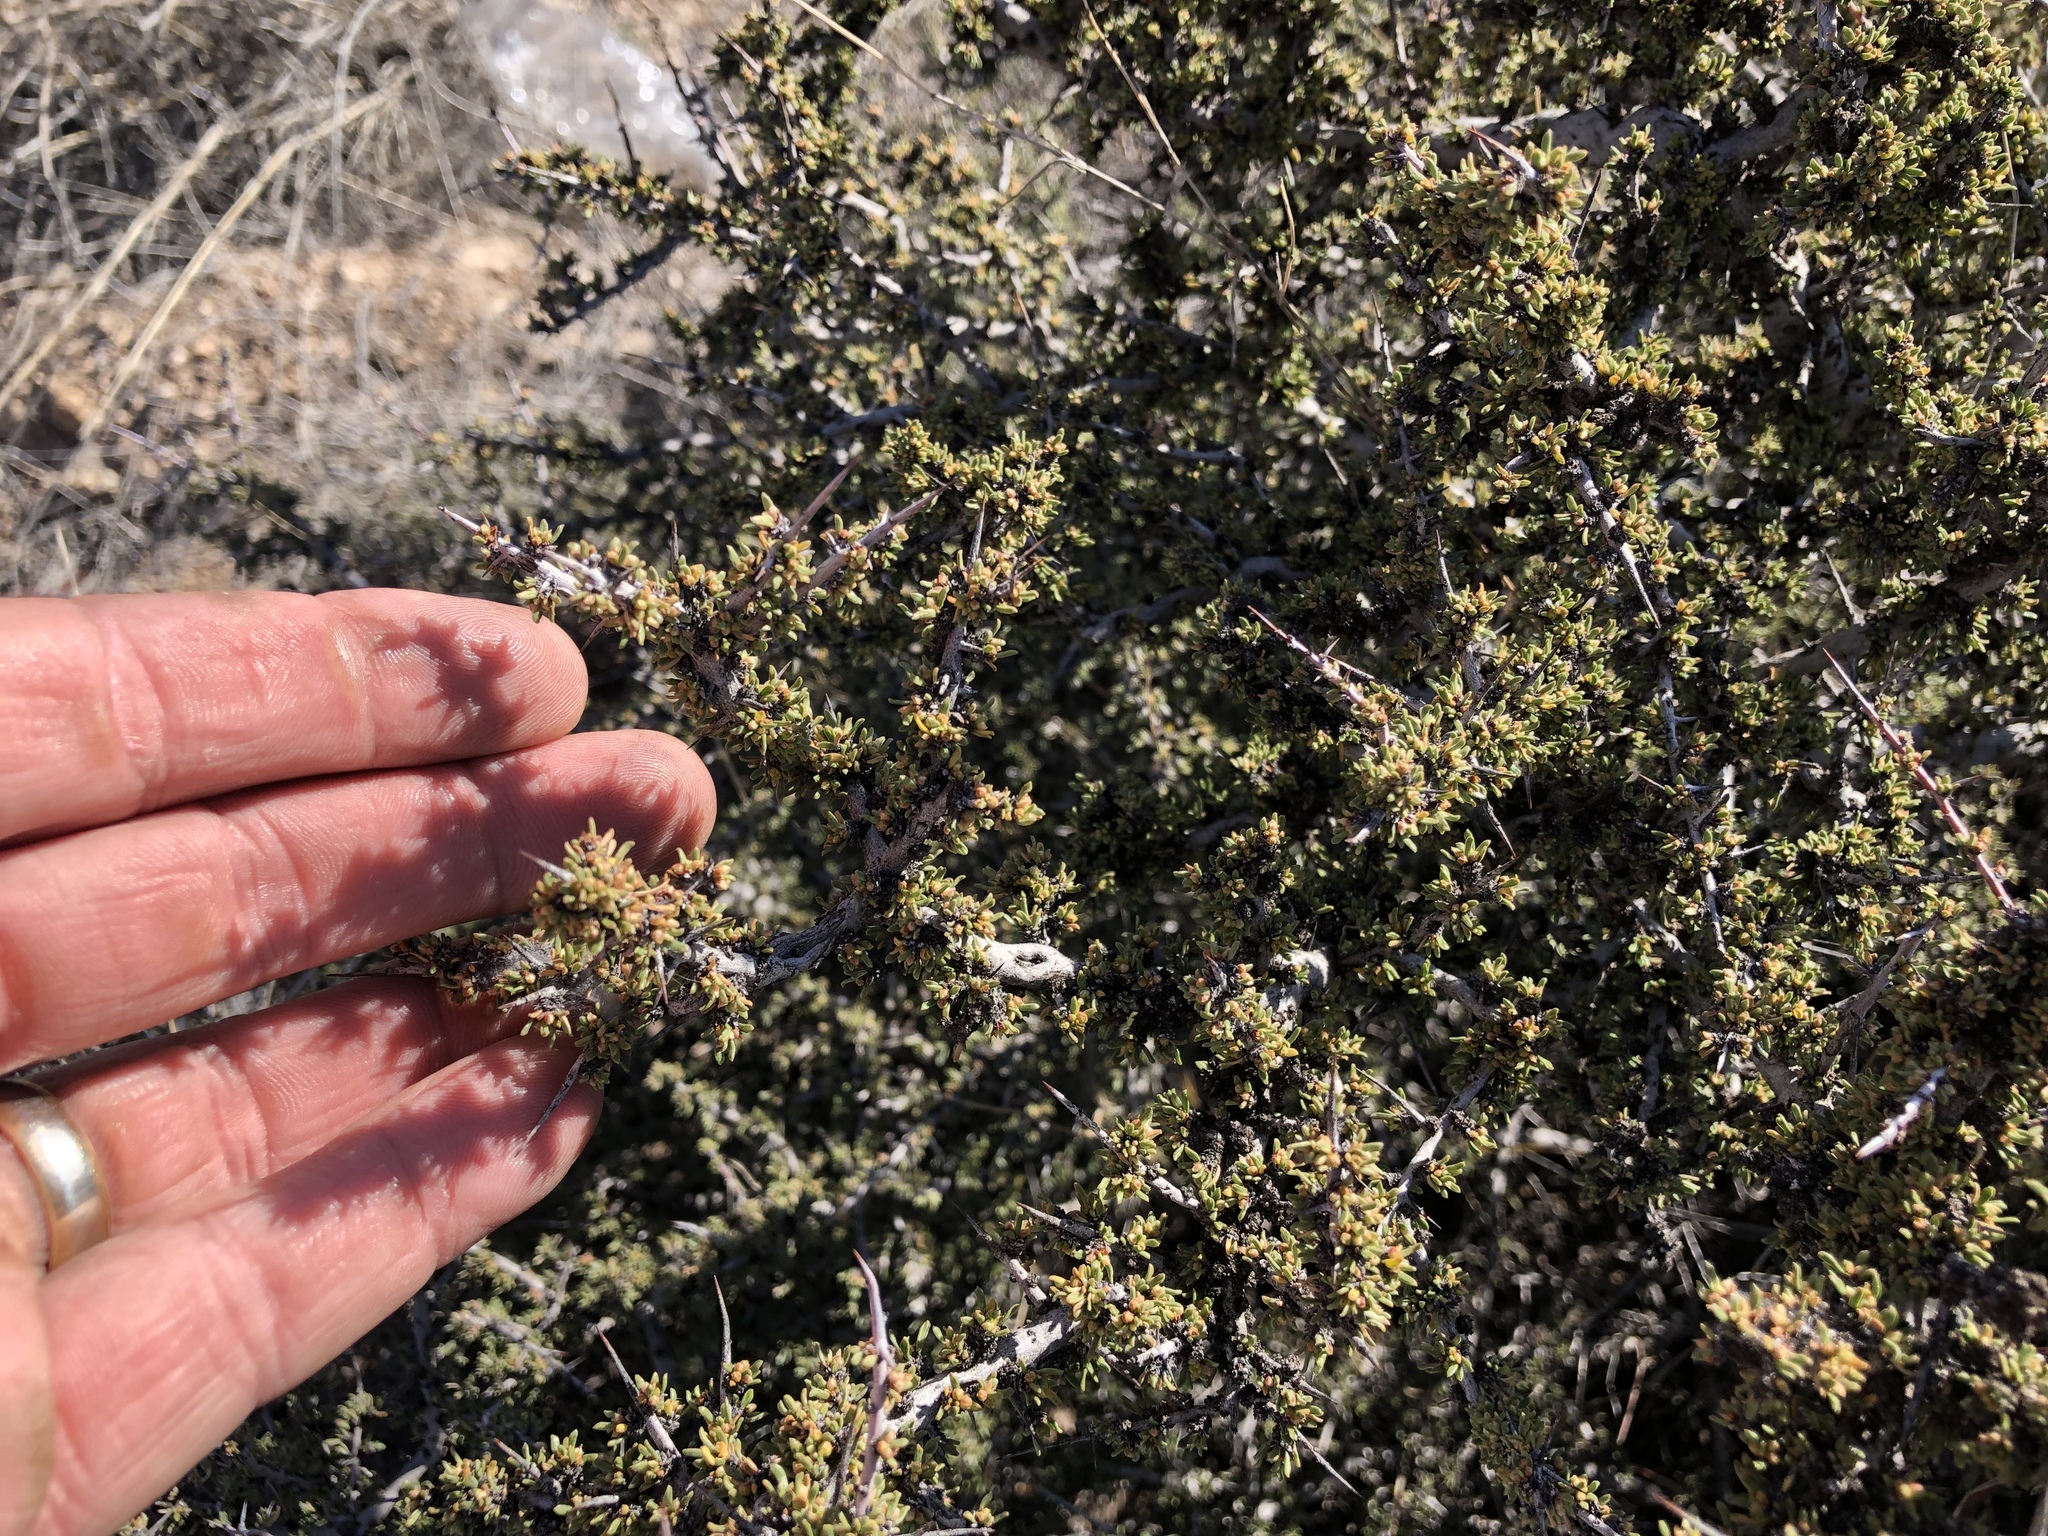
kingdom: Plantae
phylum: Tracheophyta
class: Magnoliopsida
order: Rosales
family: Rhamnaceae
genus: Condalia
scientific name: Condalia ericoides
